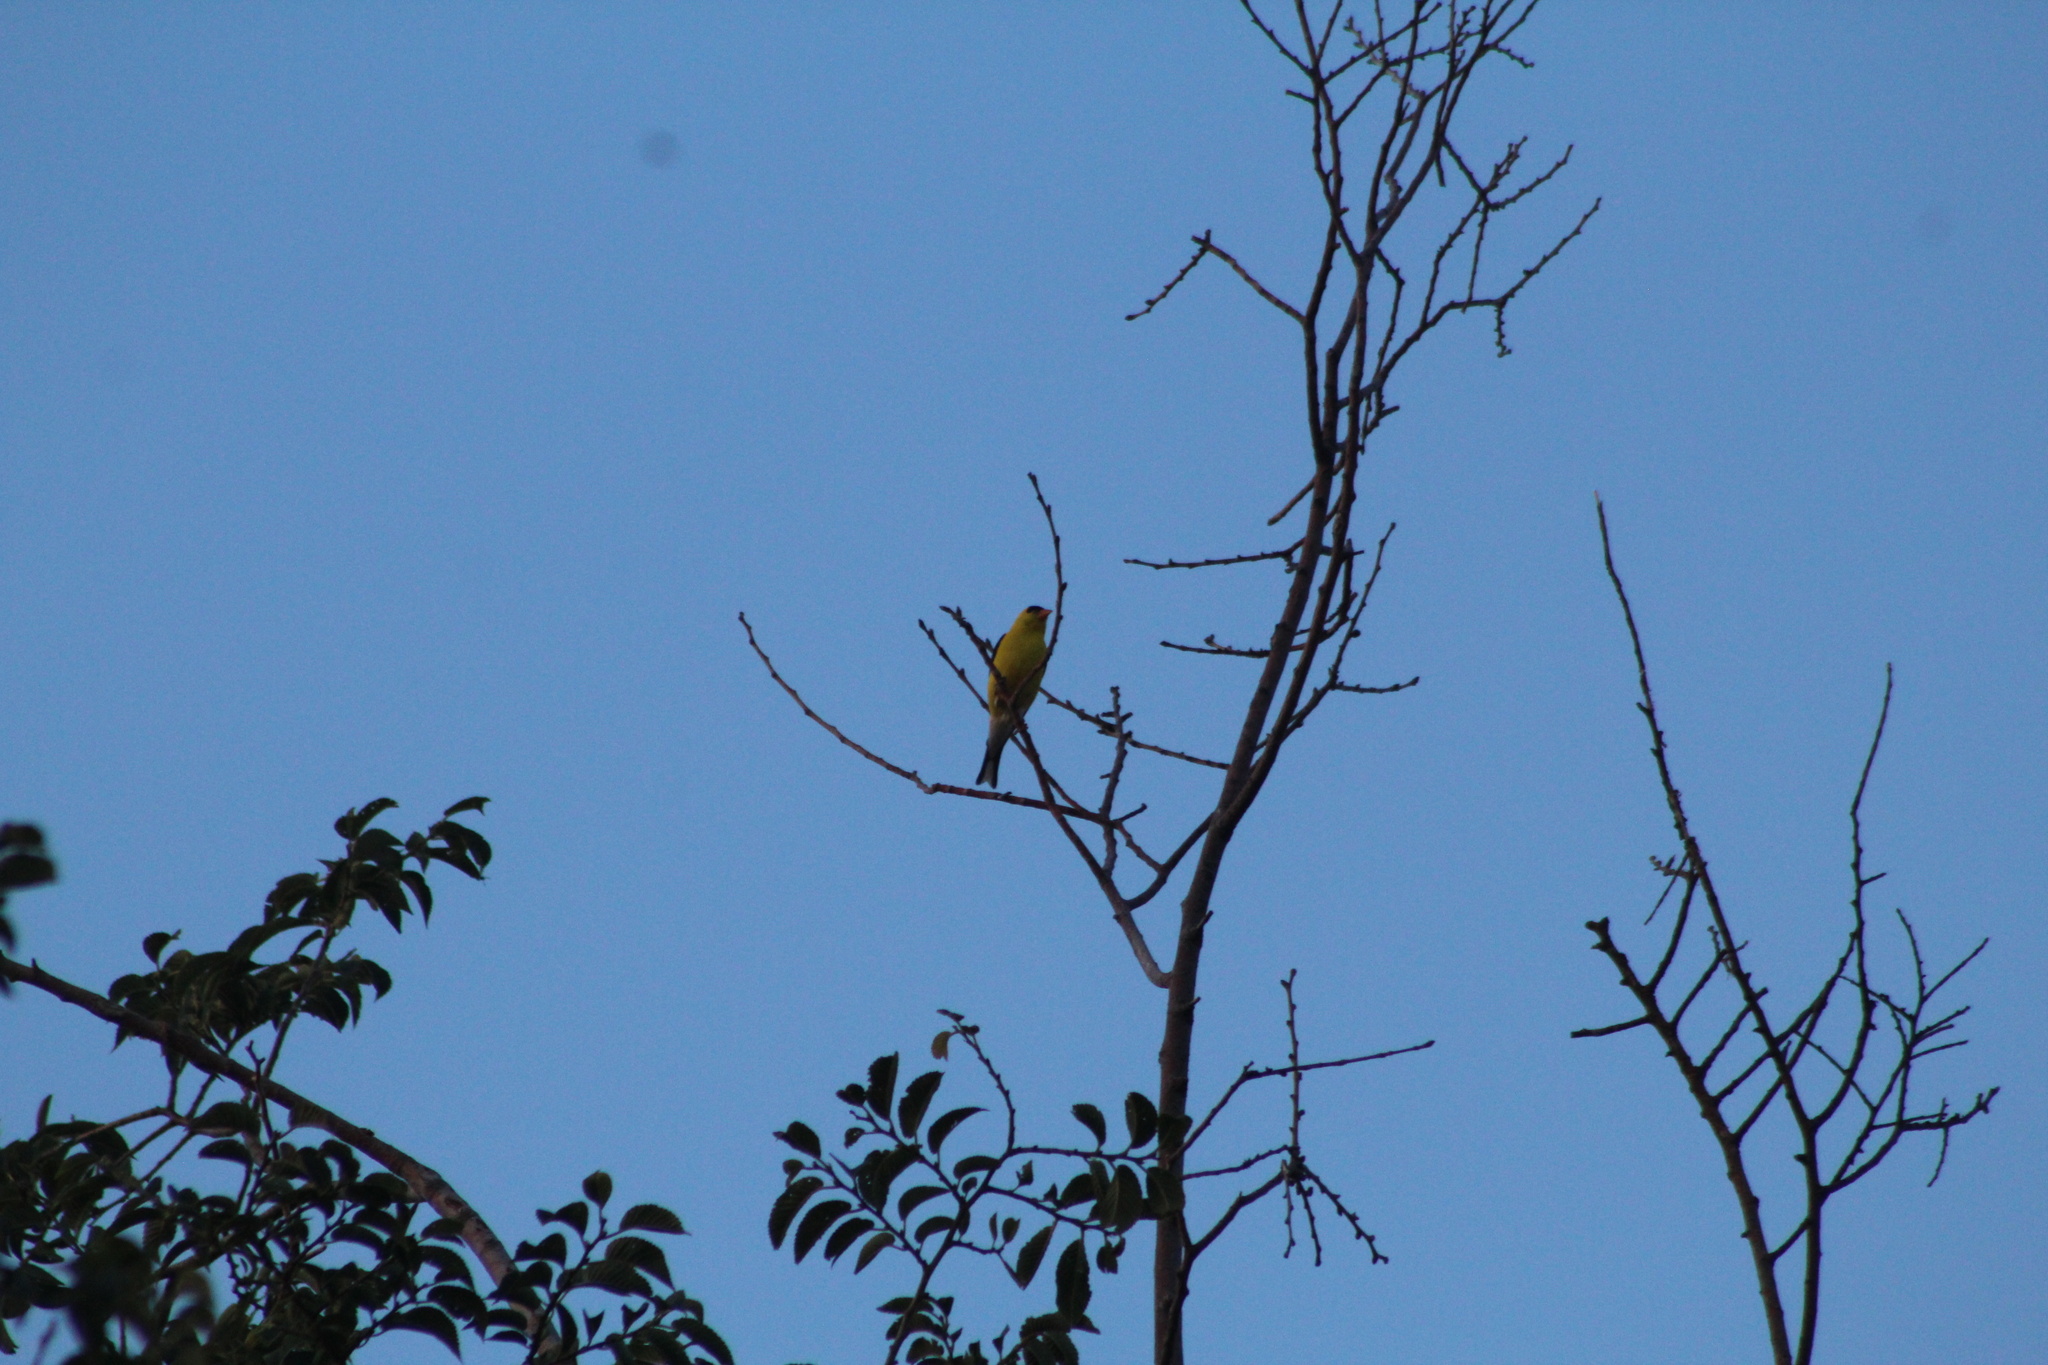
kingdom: Animalia
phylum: Chordata
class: Aves
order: Passeriformes
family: Fringillidae
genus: Spinus
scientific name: Spinus tristis
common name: American goldfinch
